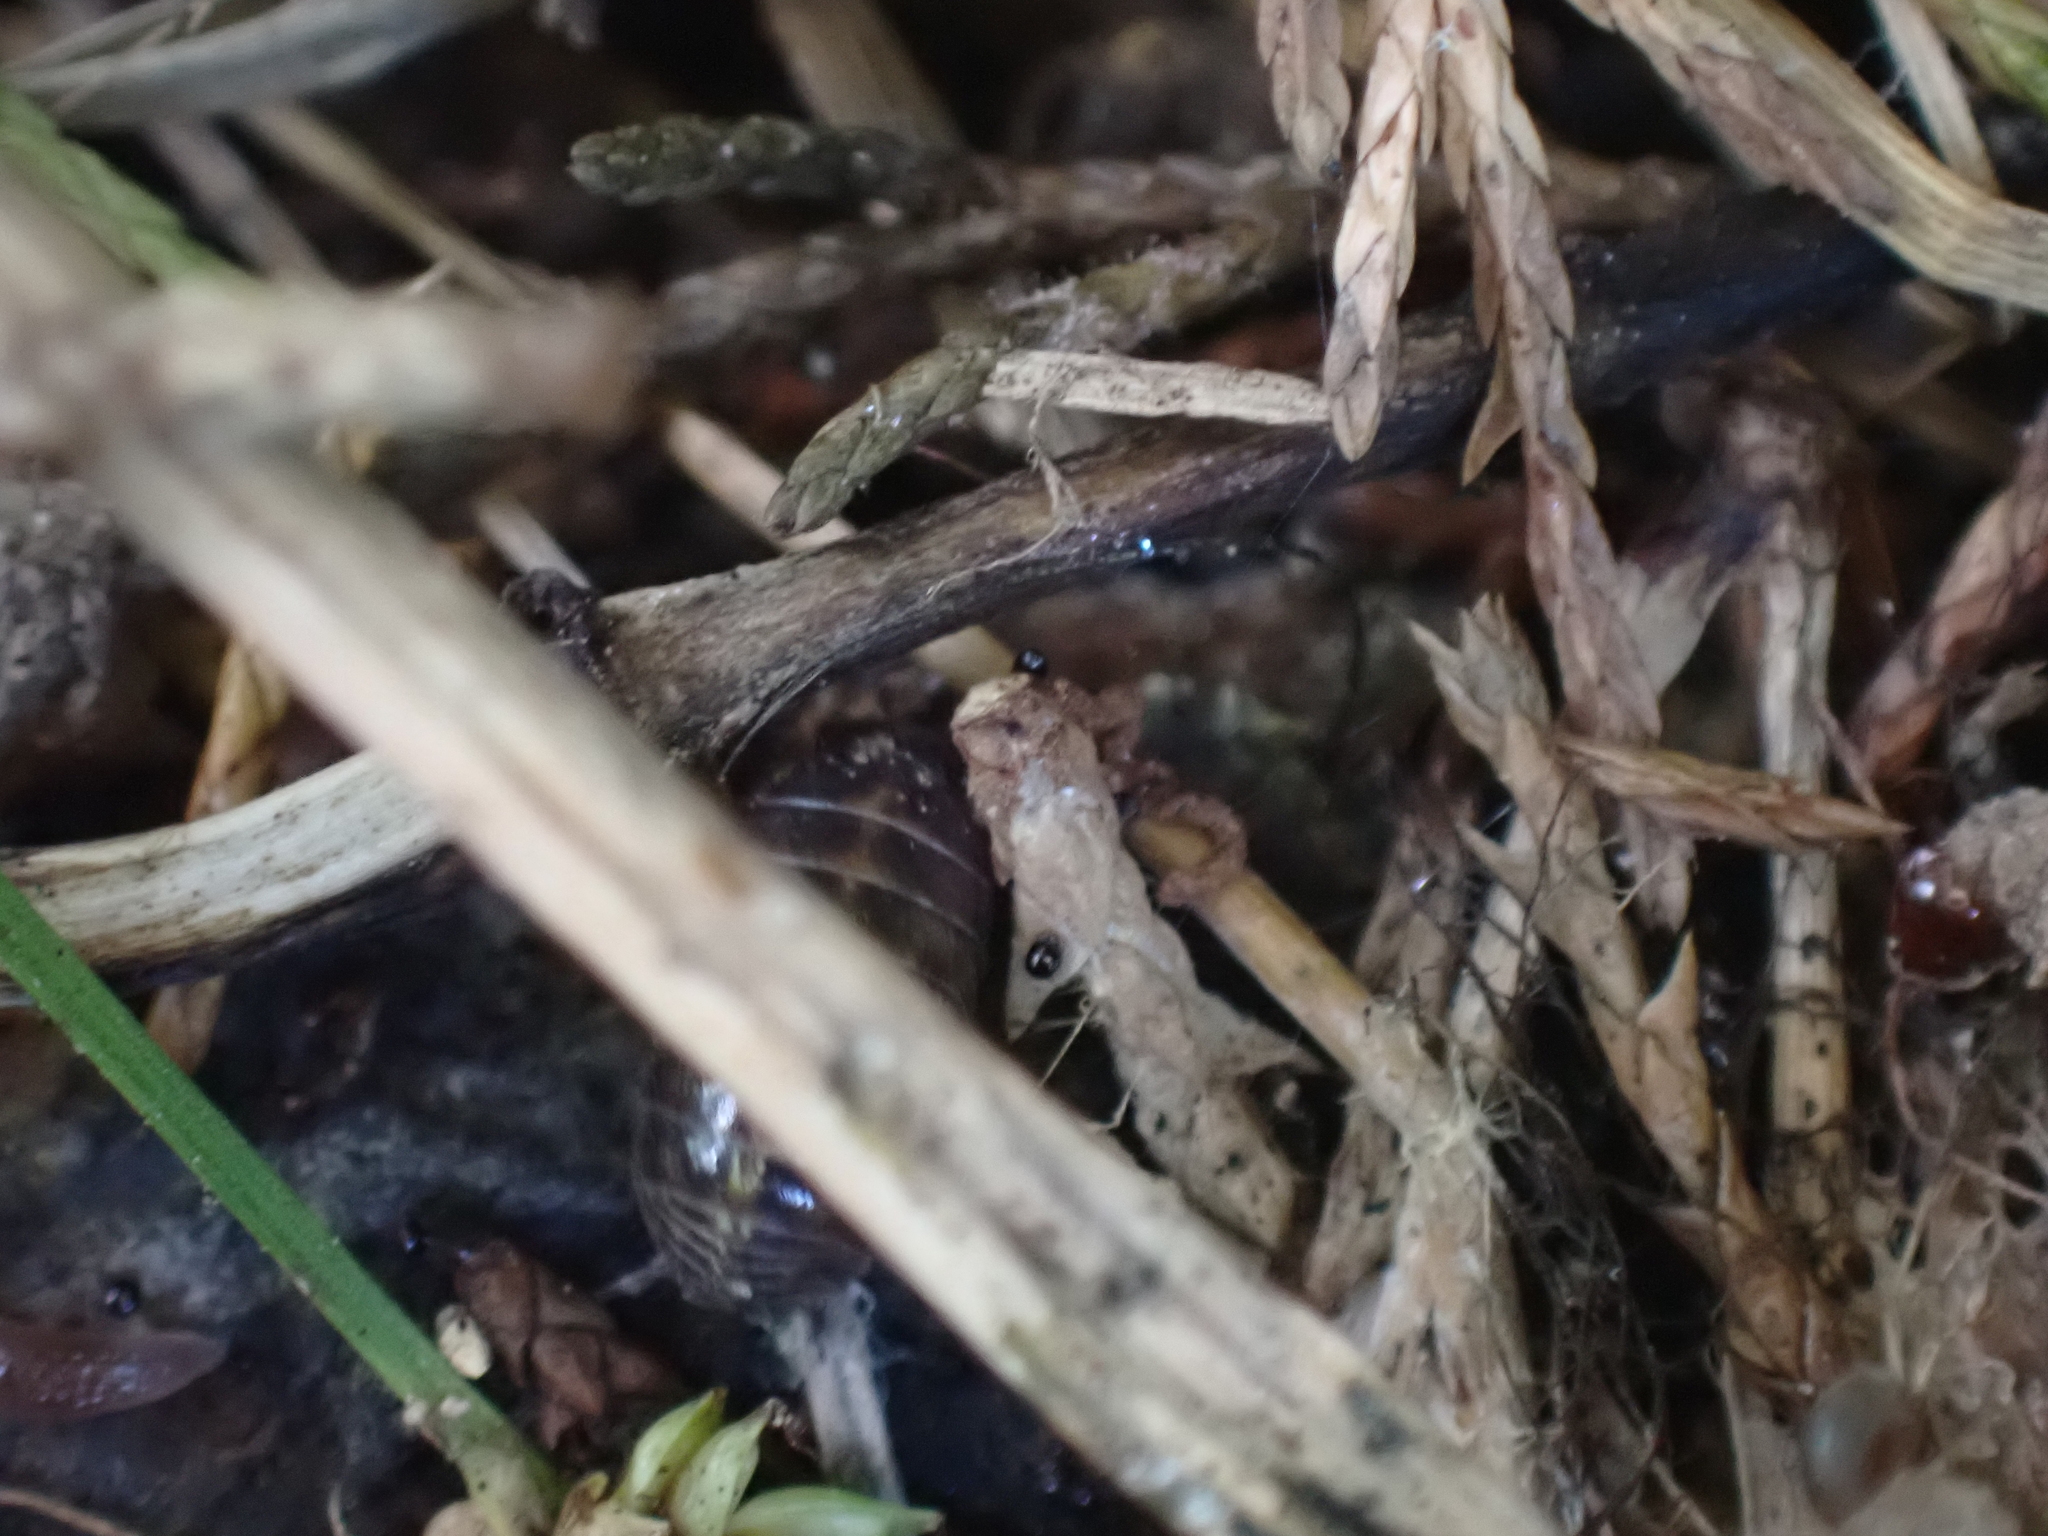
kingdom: Animalia
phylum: Arthropoda
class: Malacostraca
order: Isopoda
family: Armadillidiidae
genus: Armadillidium
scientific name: Armadillidium vulgare
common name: Common pill woodlouse
